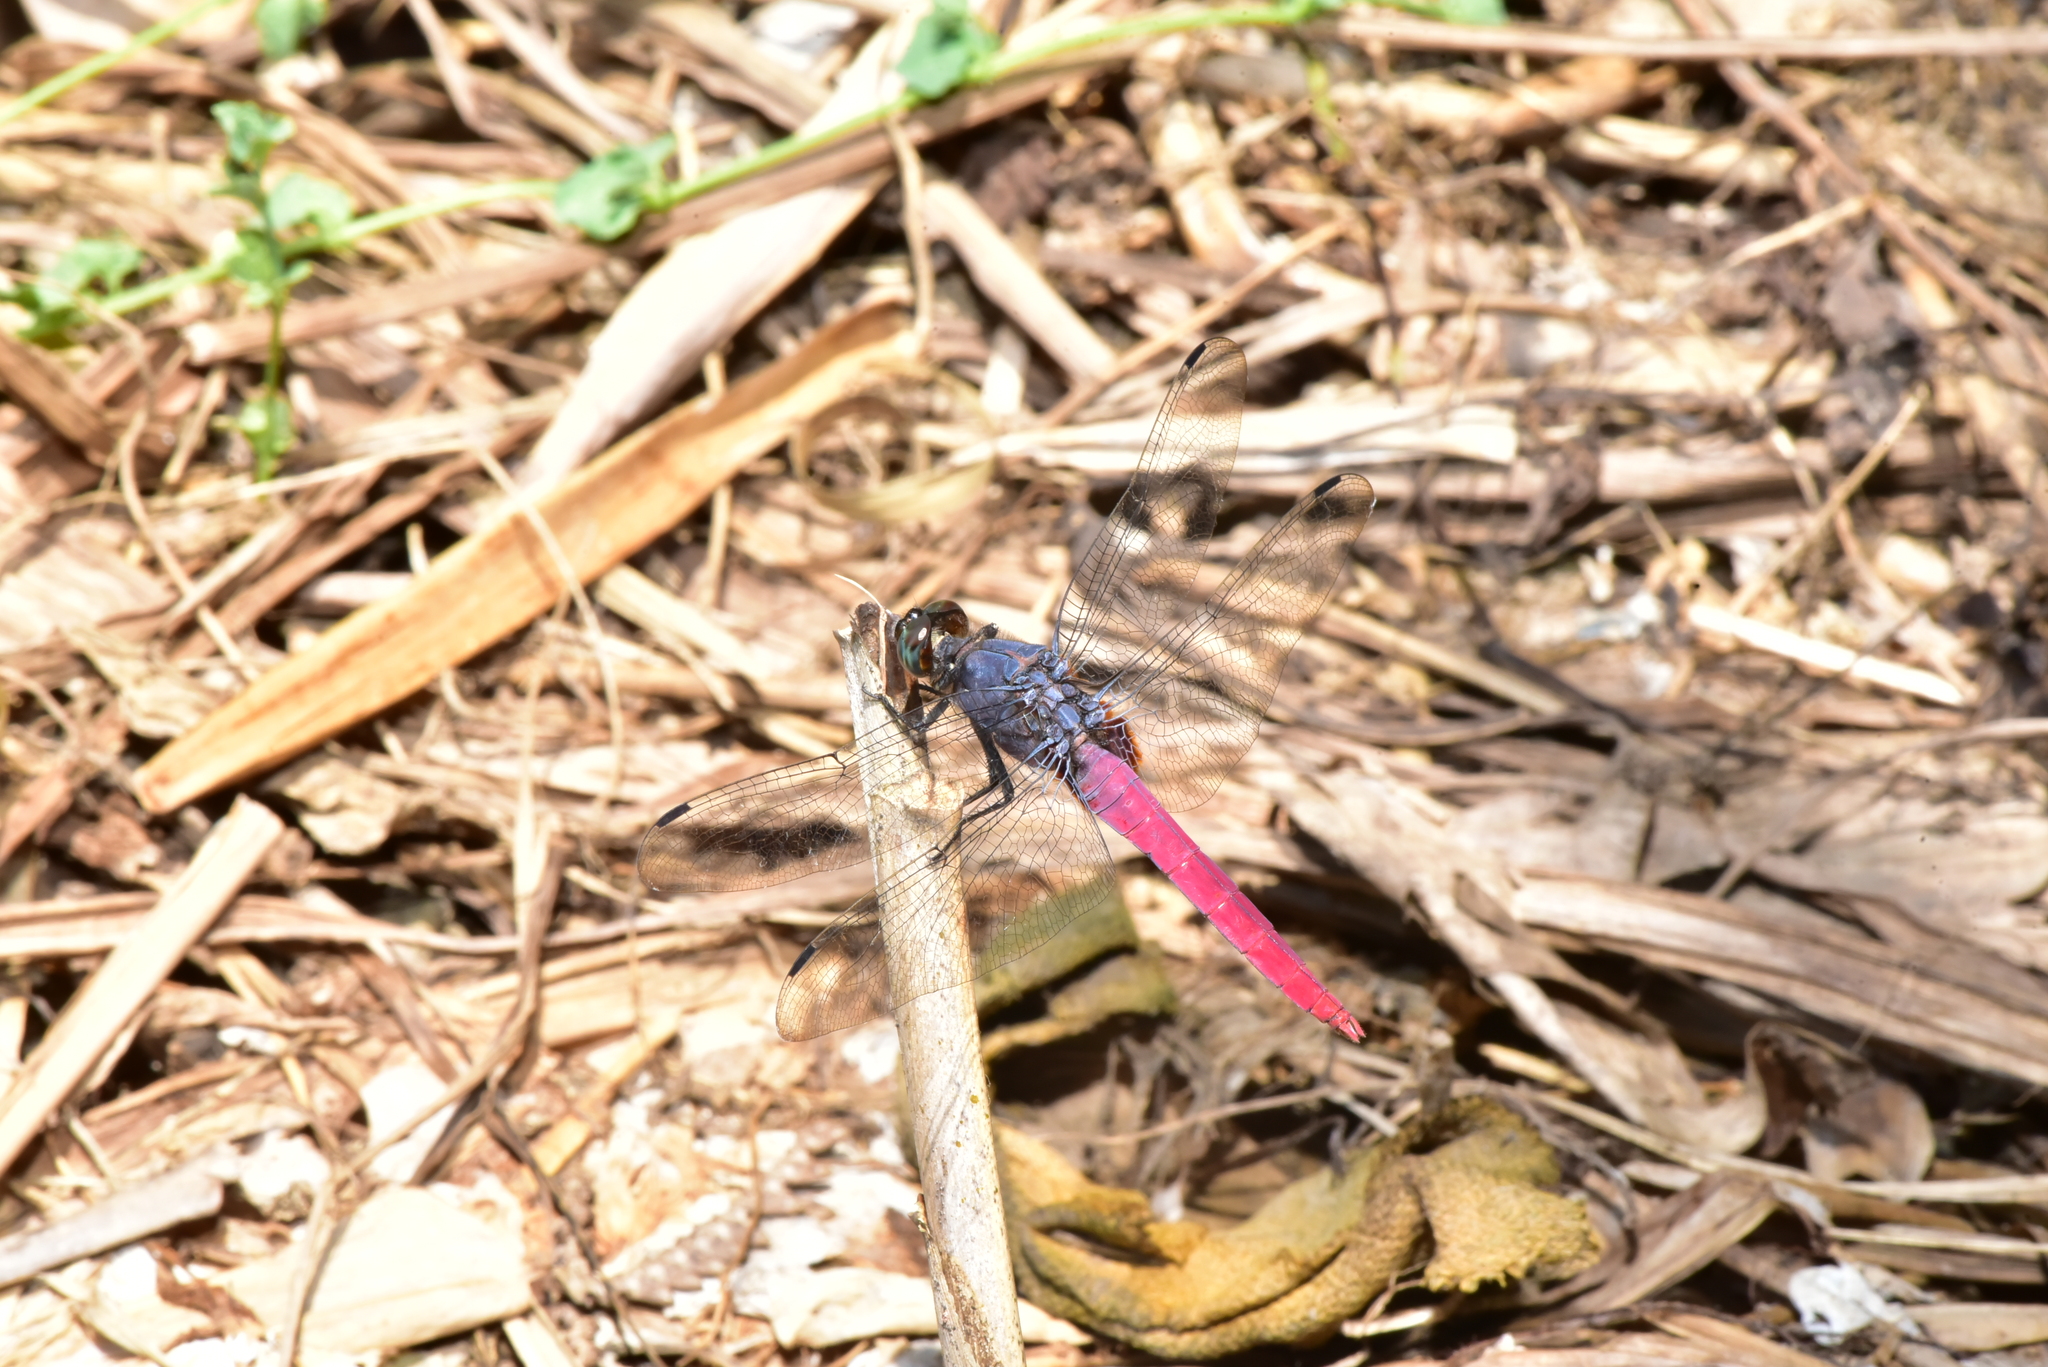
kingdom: Animalia
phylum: Arthropoda
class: Insecta
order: Odonata
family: Libellulidae
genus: Orthetrum
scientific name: Orthetrum pruinosum
